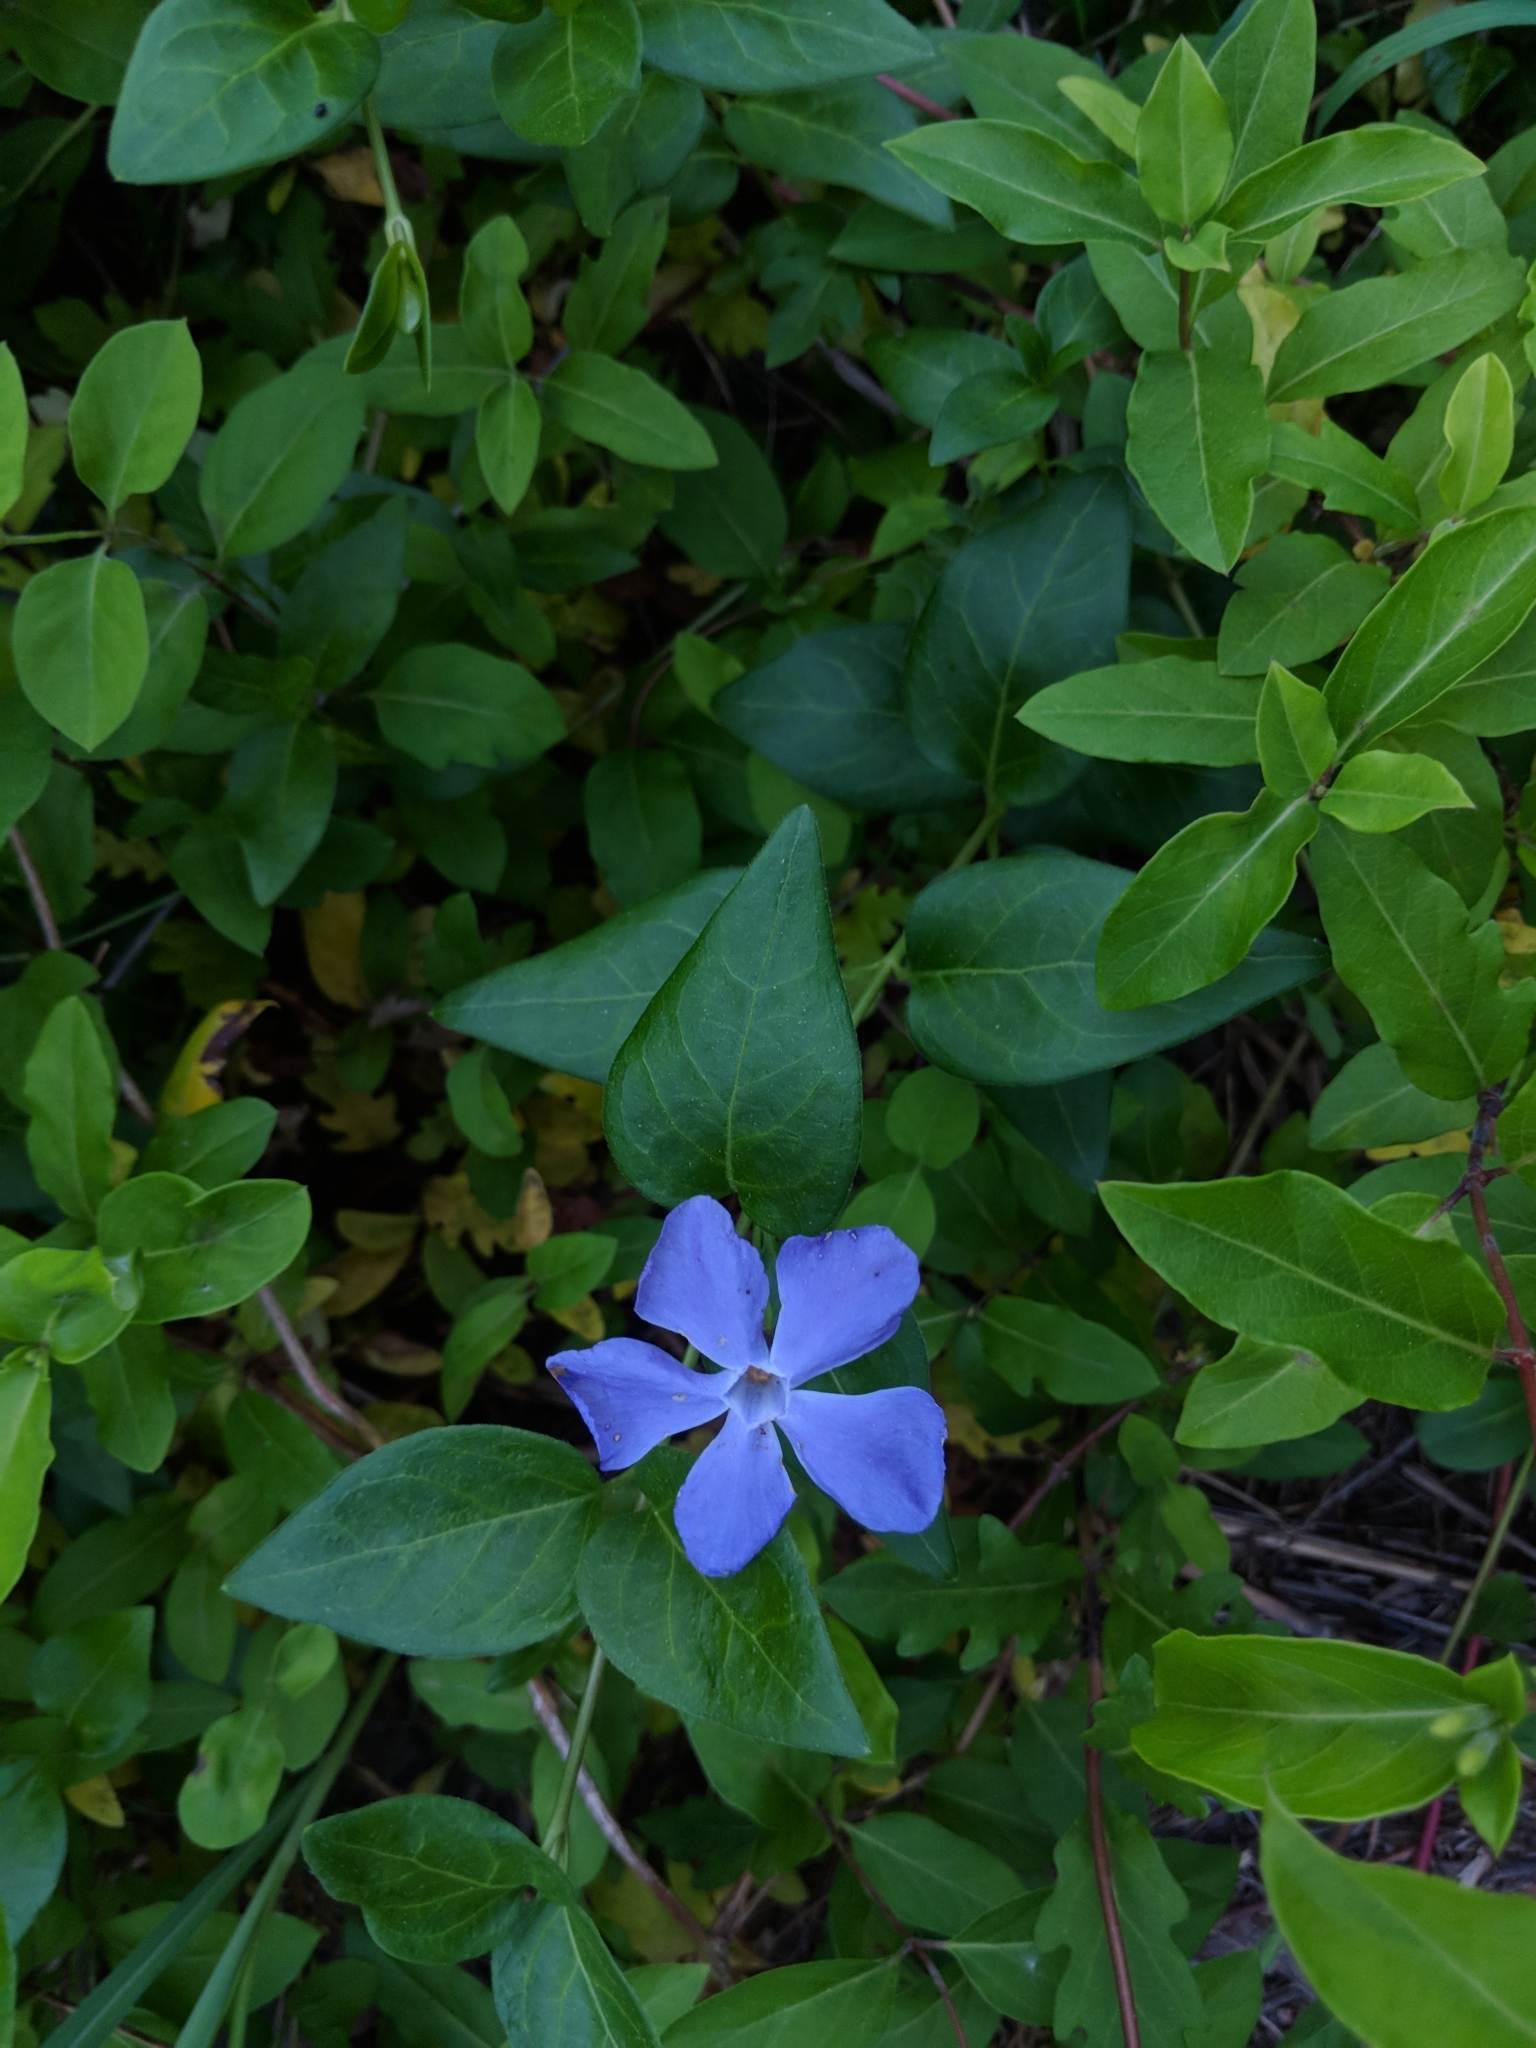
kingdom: Plantae
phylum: Tracheophyta
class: Magnoliopsida
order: Gentianales
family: Apocynaceae
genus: Vinca
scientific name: Vinca major
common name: Greater periwinkle
